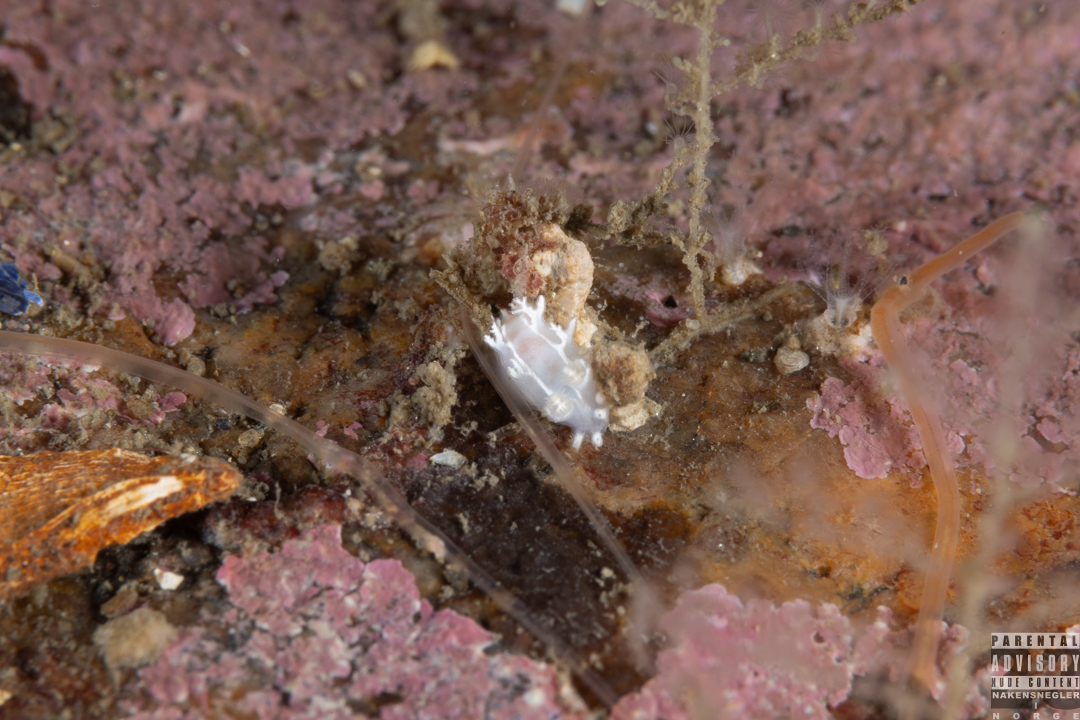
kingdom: Animalia
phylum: Mollusca
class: Gastropoda
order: Nudibranchia
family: Tritoniidae
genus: Duvaucelia
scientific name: Duvaucelia lineata
